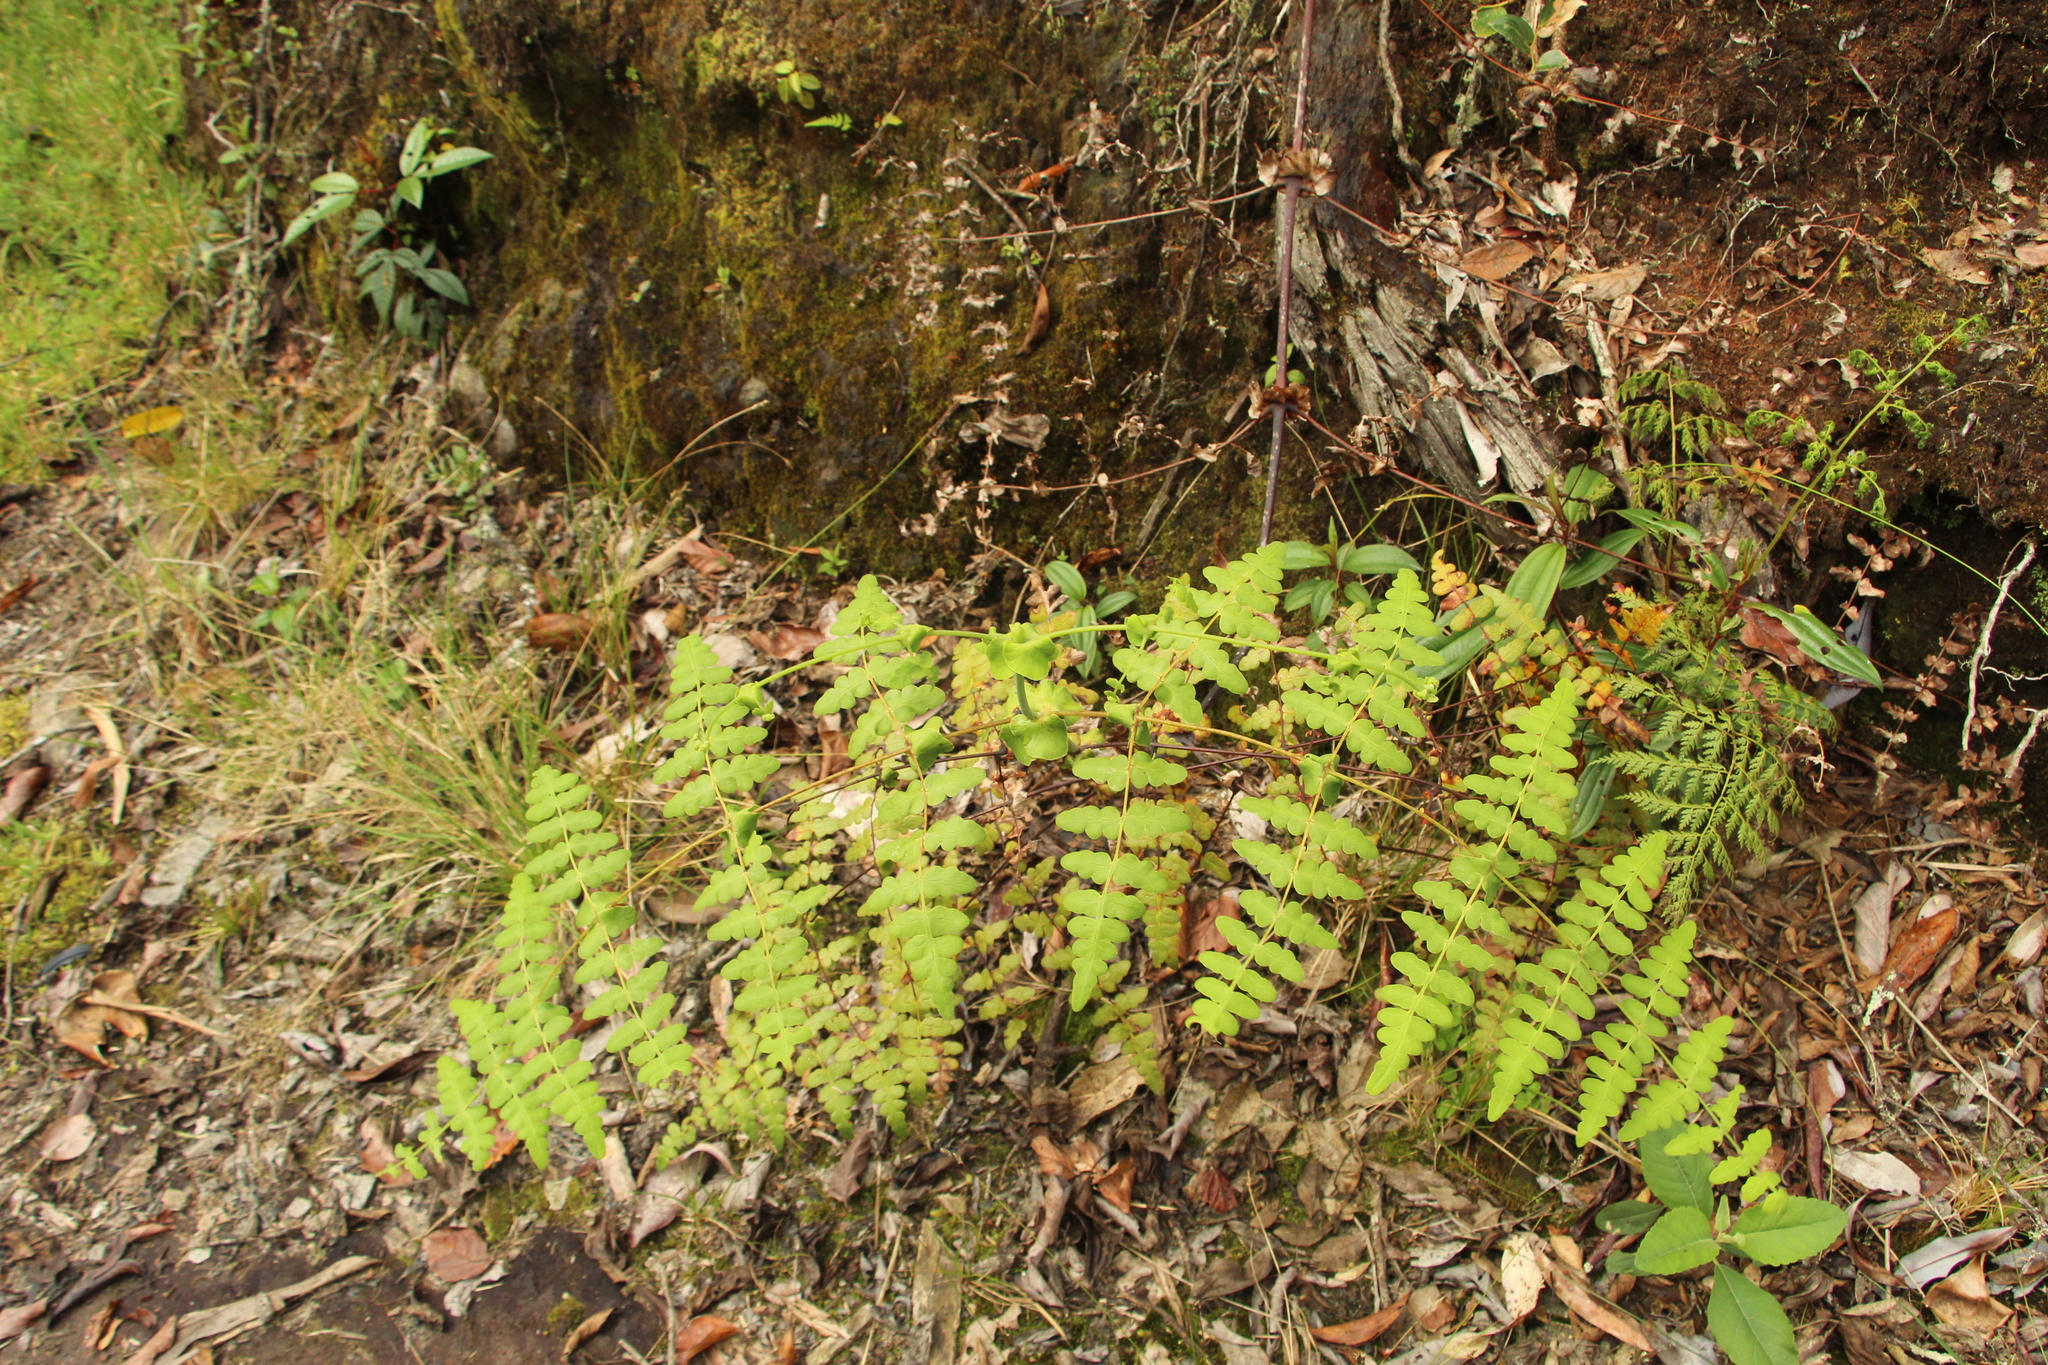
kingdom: Plantae
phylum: Tracheophyta
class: Polypodiopsida
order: Polypodiales
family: Dennstaedtiaceae
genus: Histiopteris
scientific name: Histiopteris incisa
